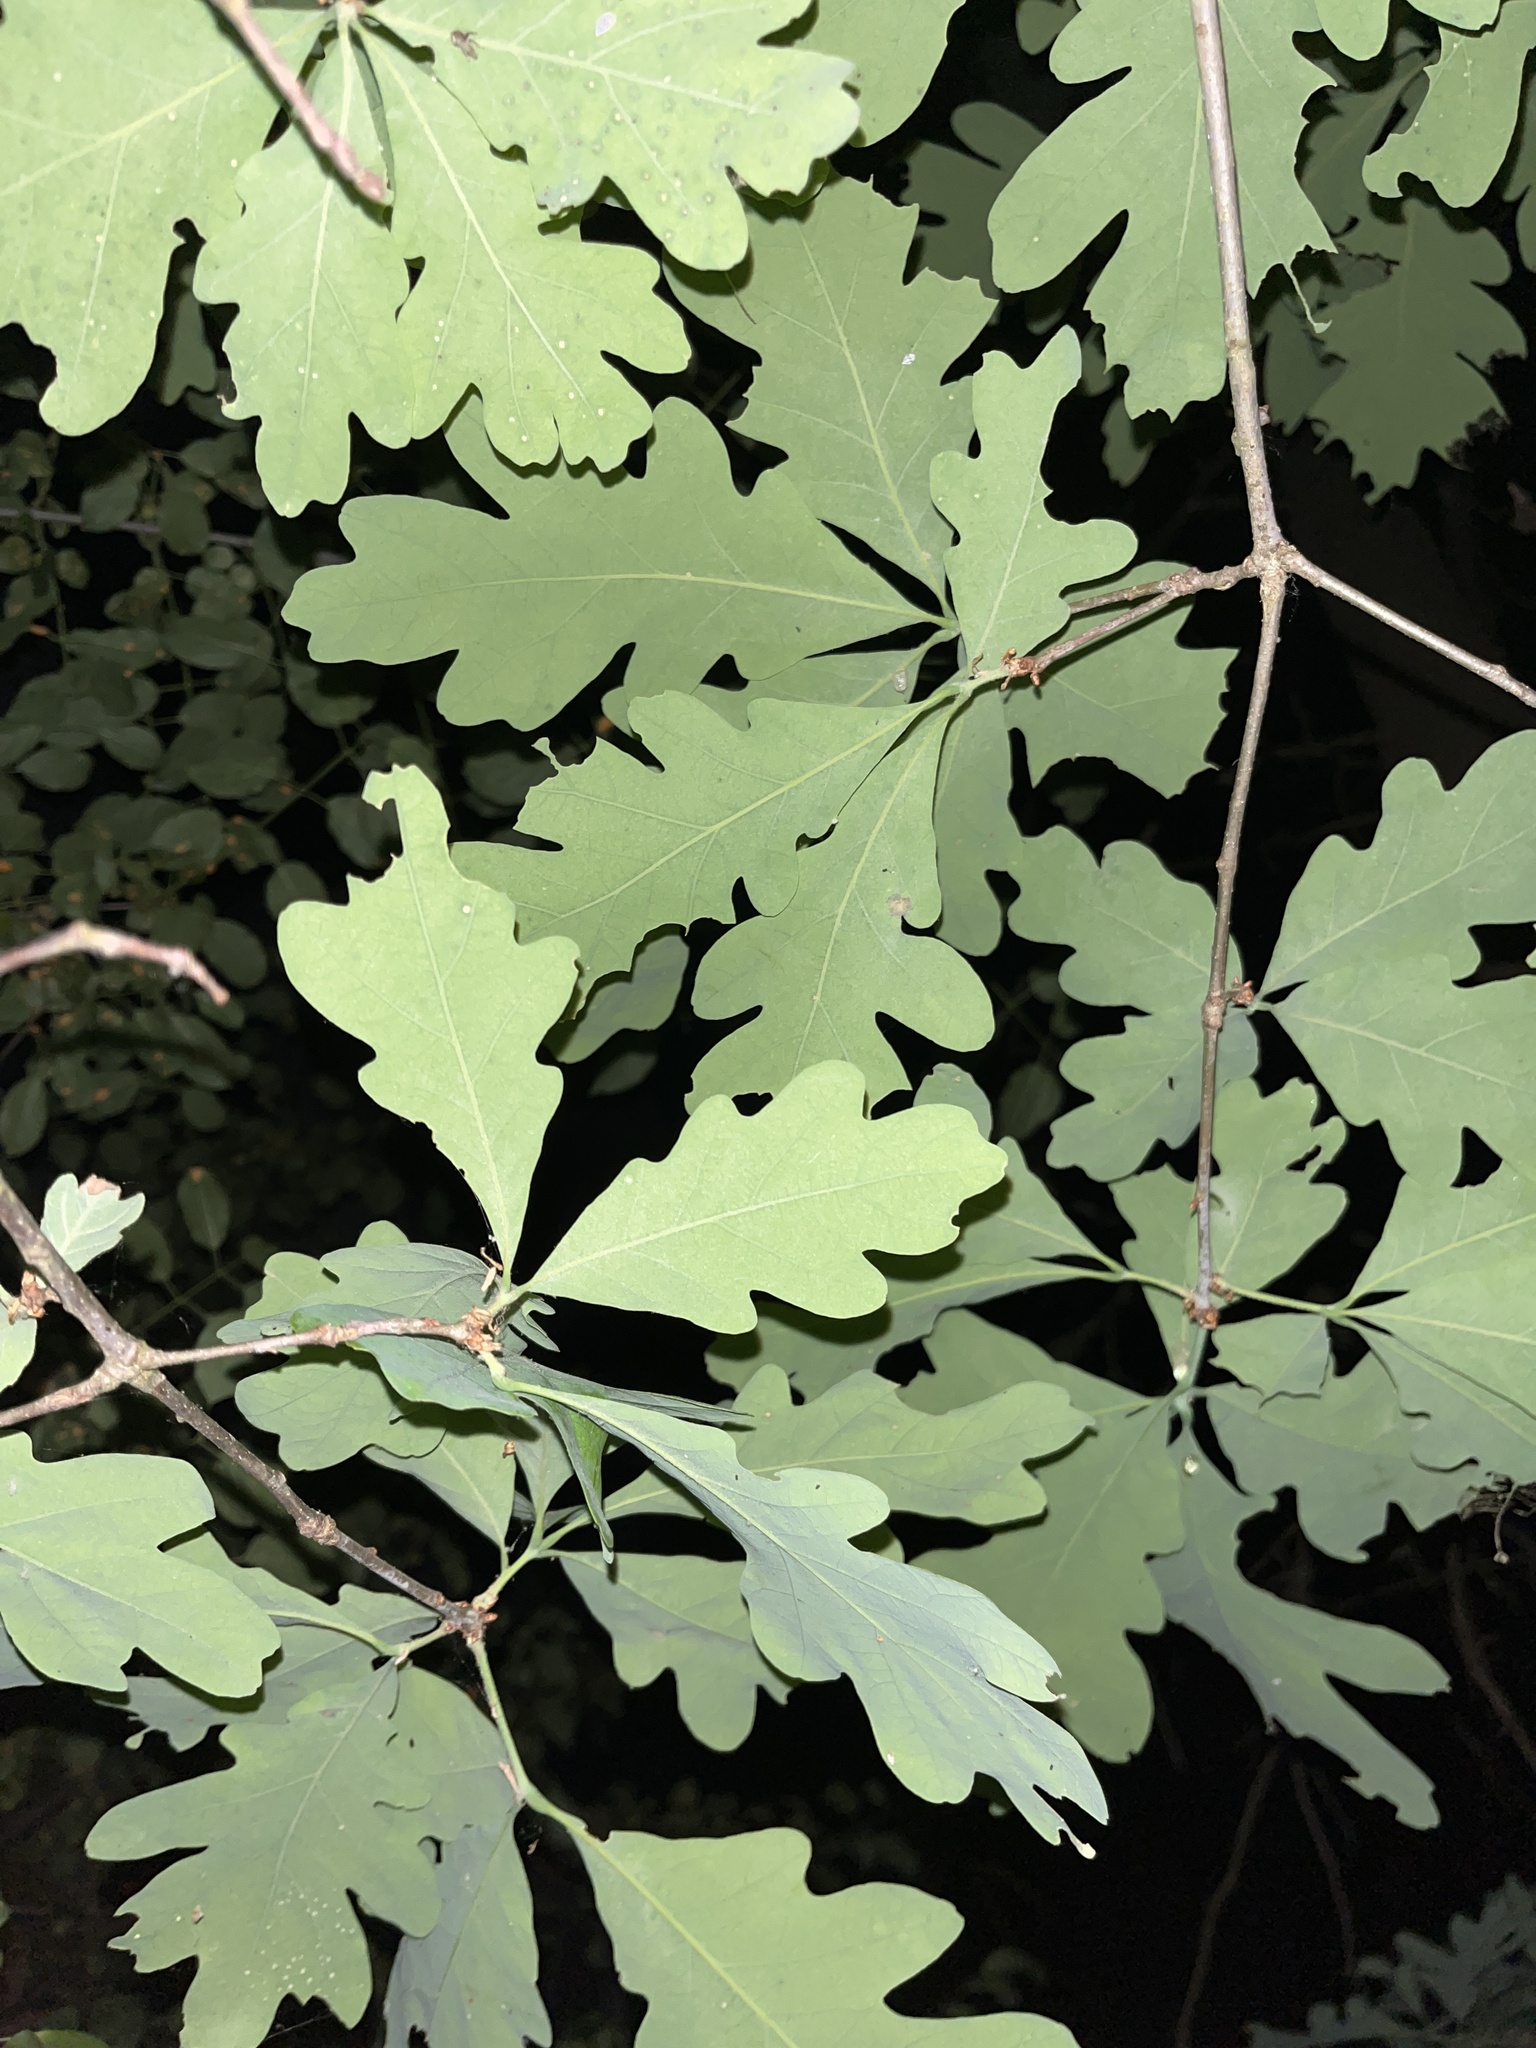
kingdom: Plantae
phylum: Tracheophyta
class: Magnoliopsida
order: Fagales
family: Fagaceae
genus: Quercus
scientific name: Quercus alba
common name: White oak
